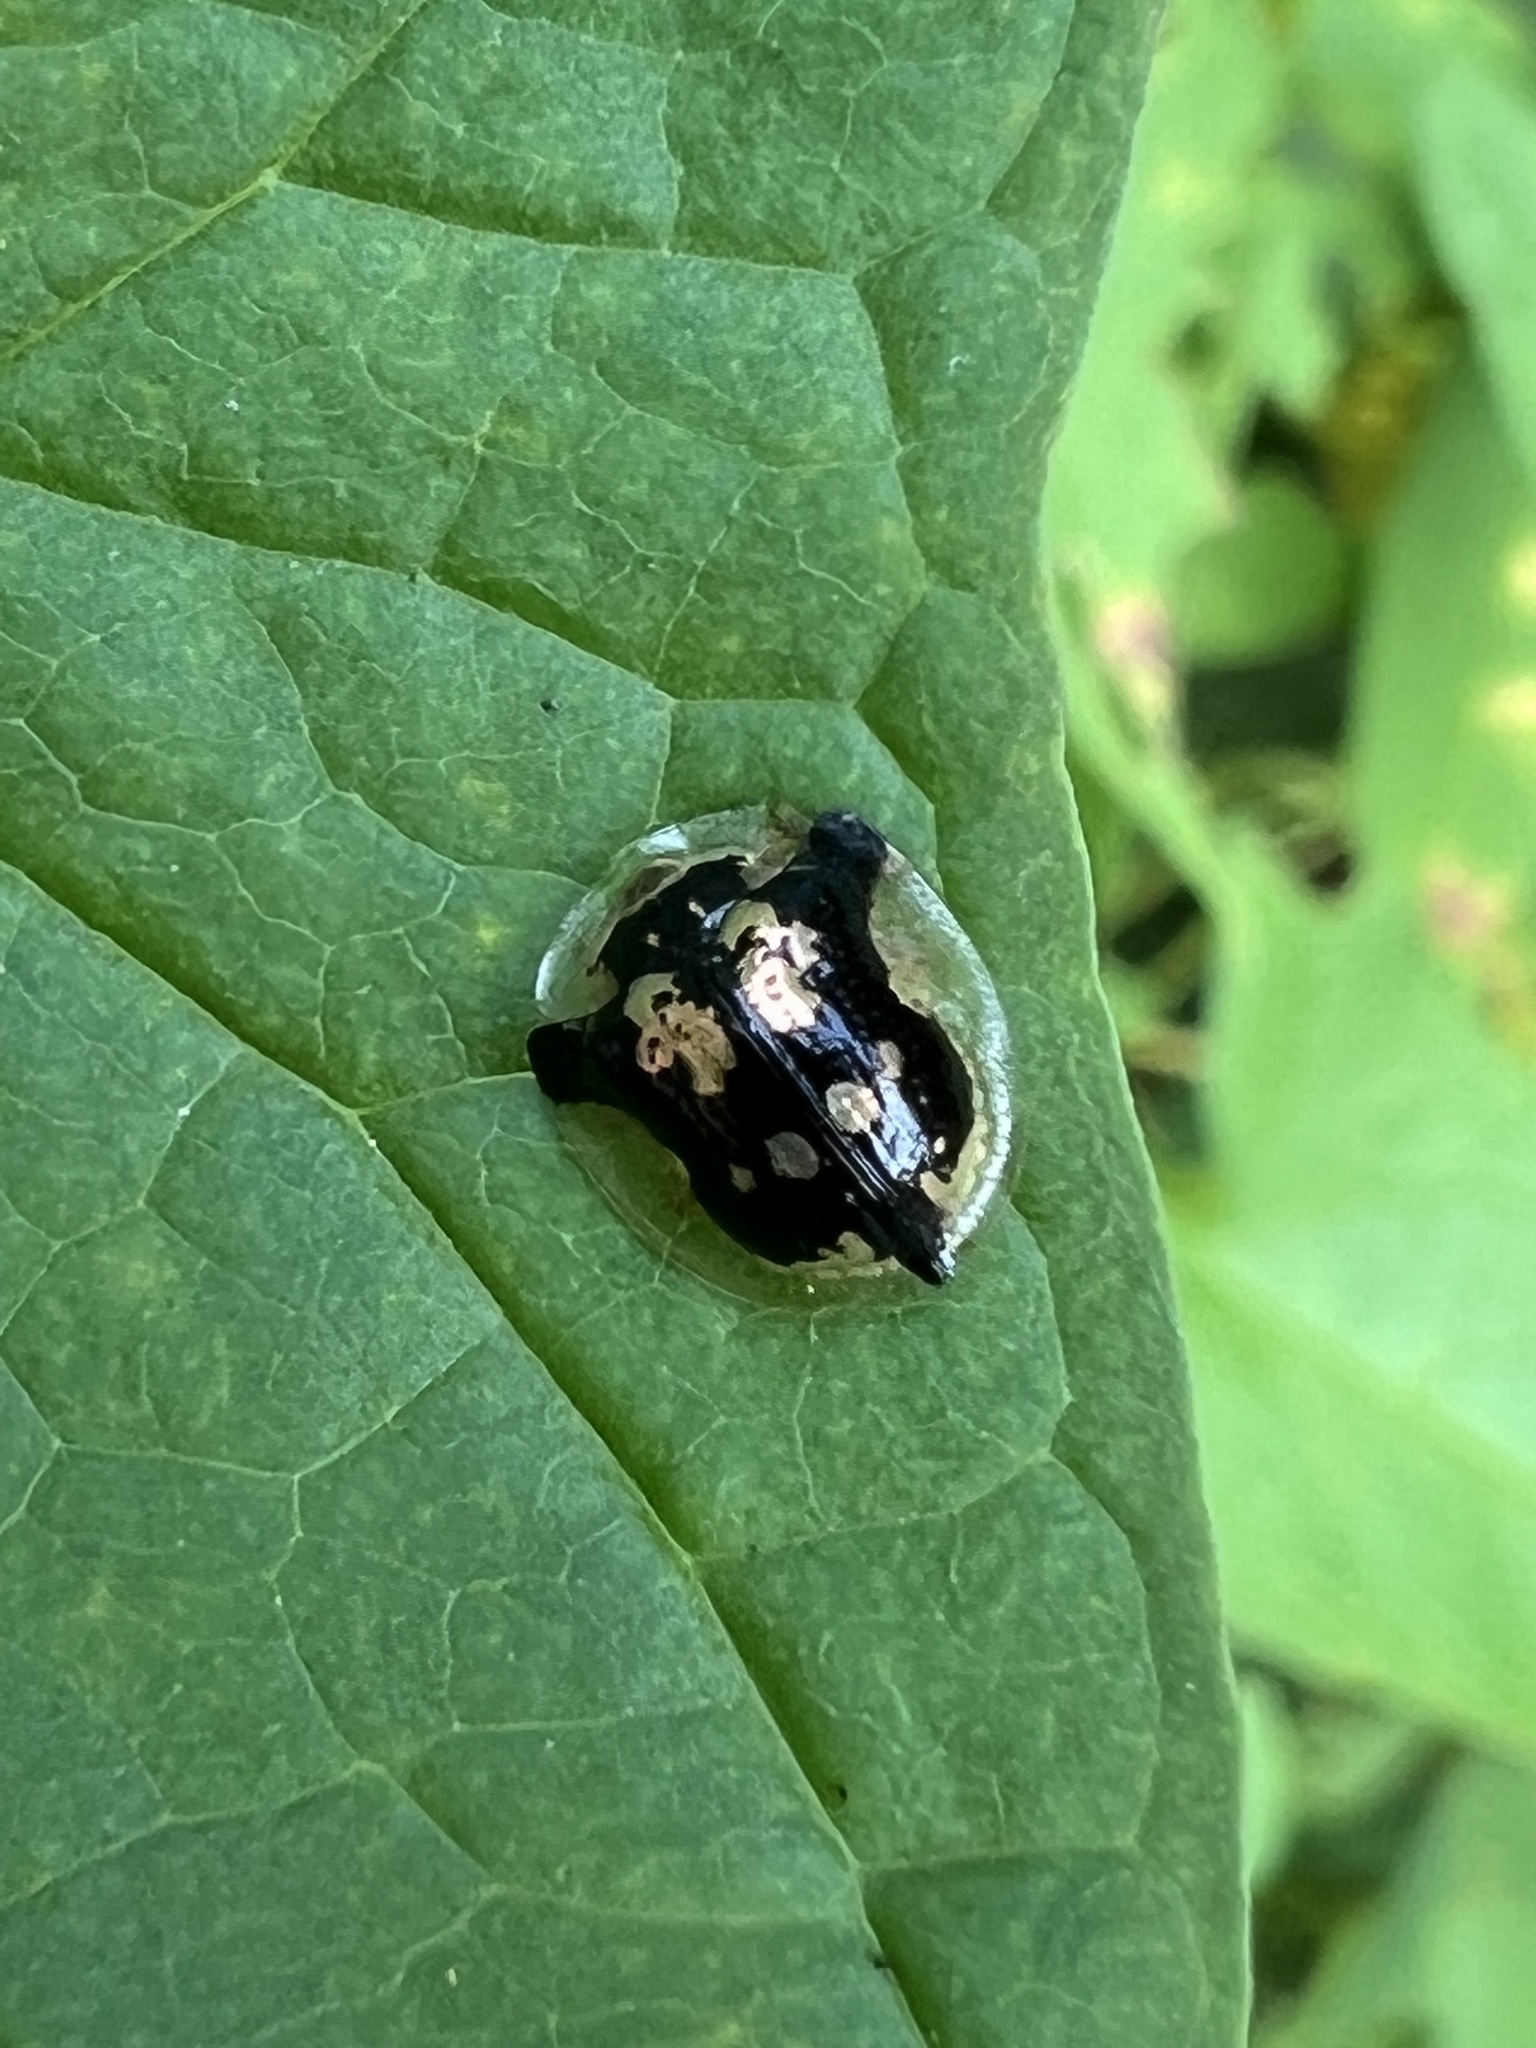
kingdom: Animalia
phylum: Arthropoda
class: Insecta
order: Coleoptera
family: Chrysomelidae
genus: Deloyala
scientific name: Deloyala guttata
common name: Mottled tortoise beetle
